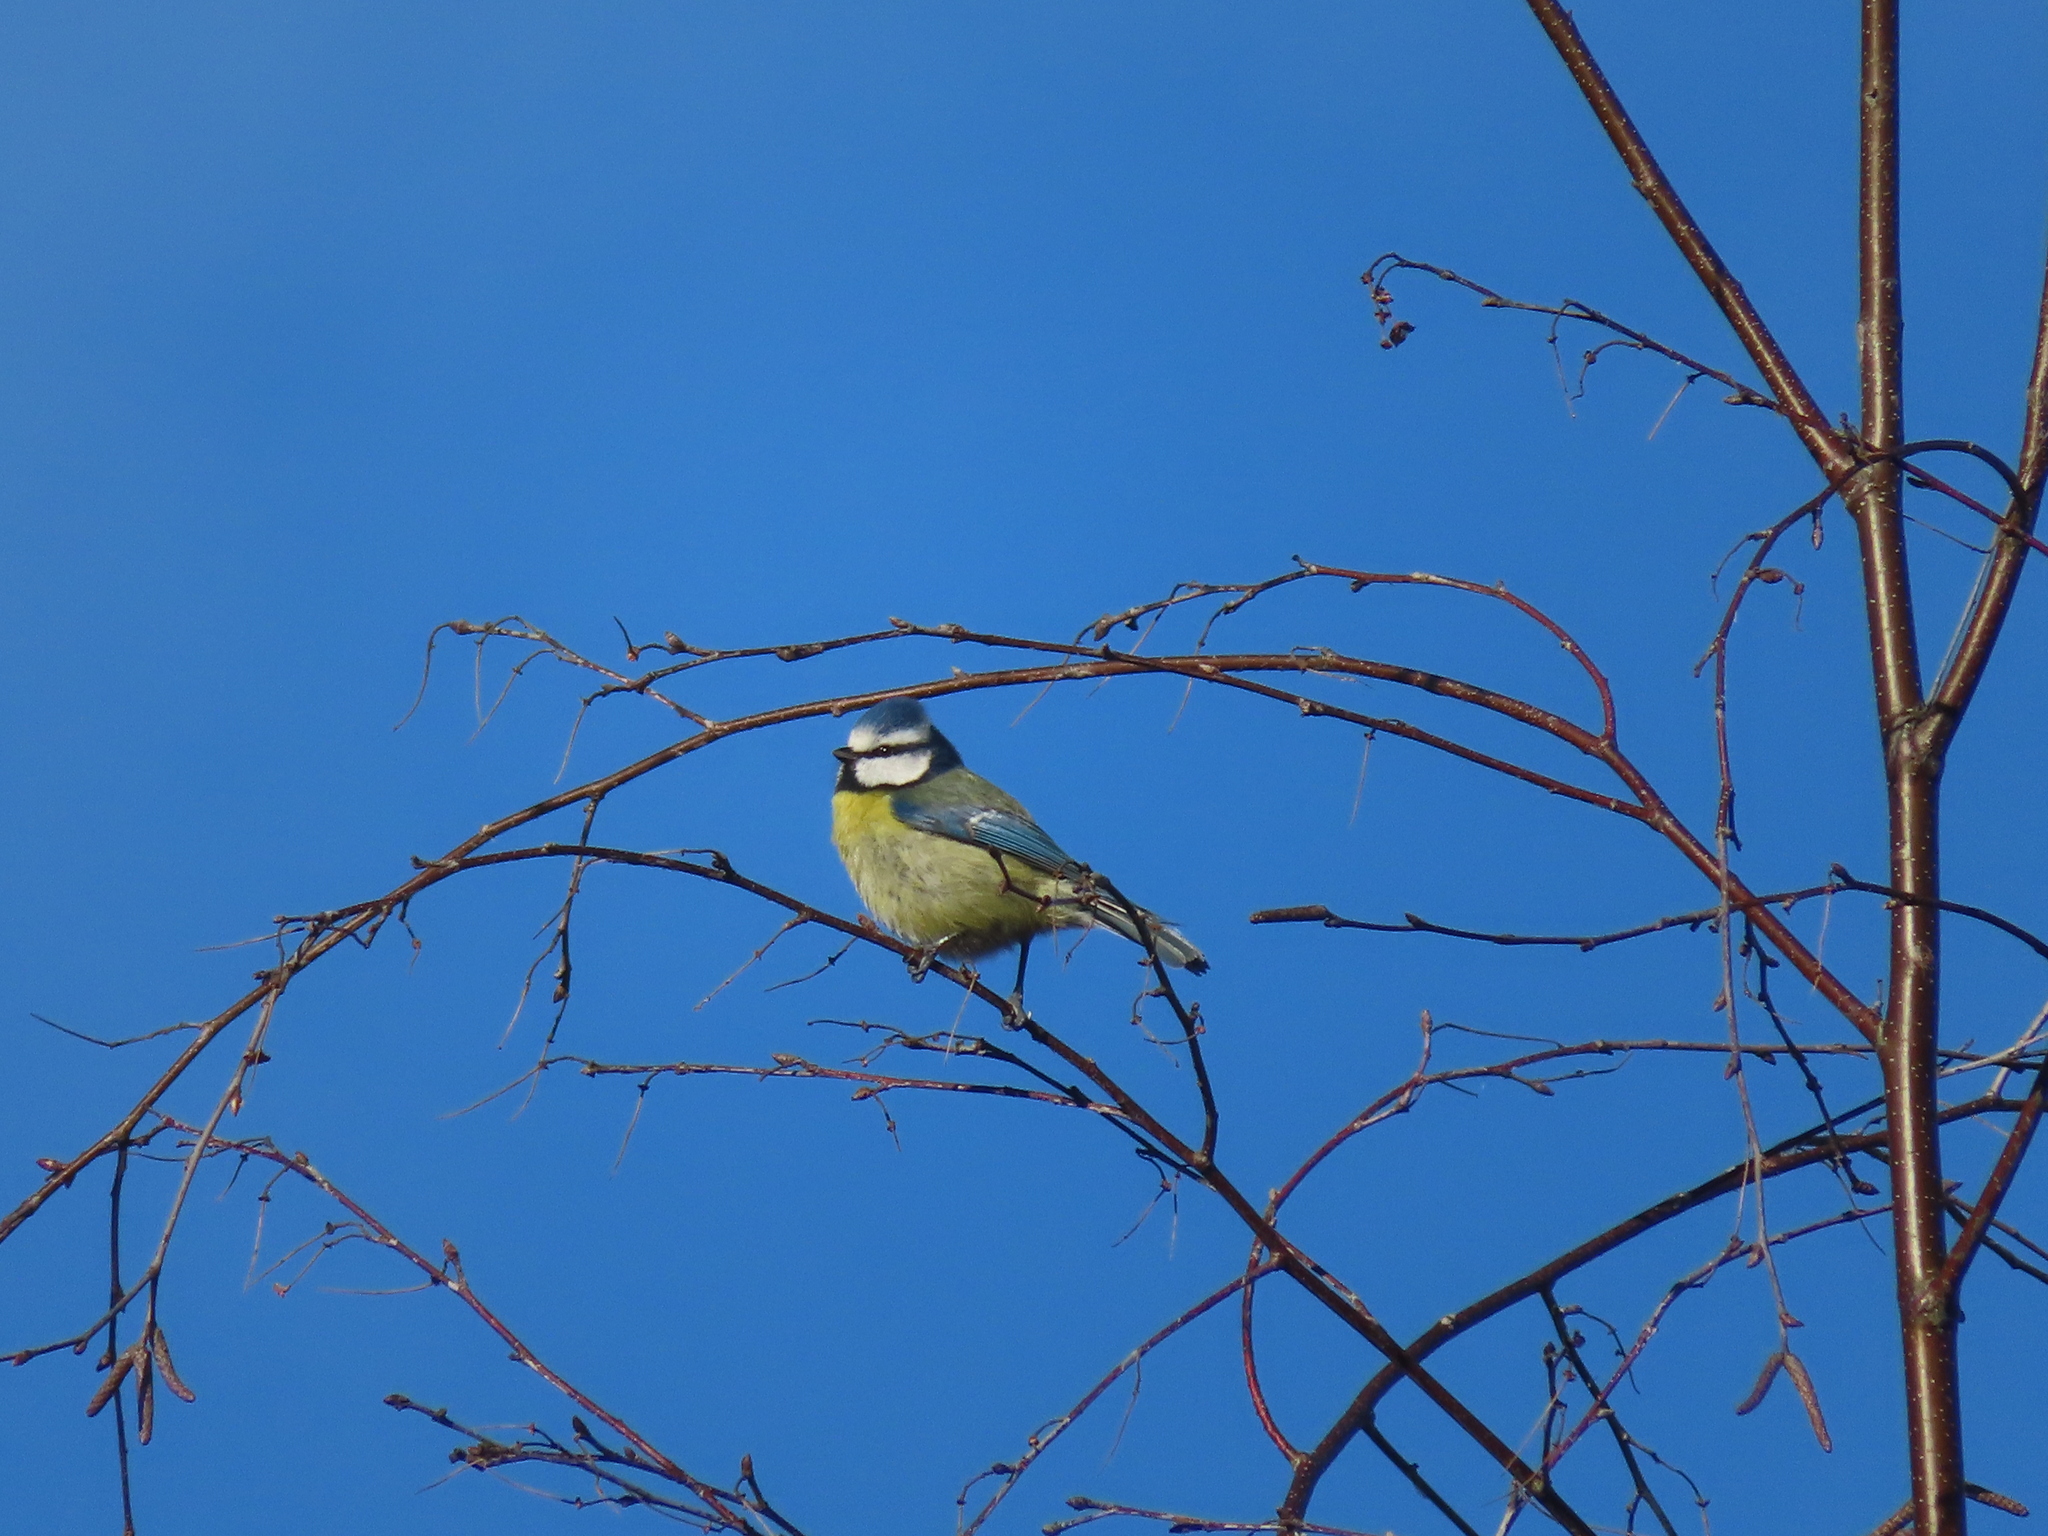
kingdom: Animalia
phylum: Chordata
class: Aves
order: Passeriformes
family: Paridae
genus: Cyanistes
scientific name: Cyanistes caeruleus
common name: Eurasian blue tit
